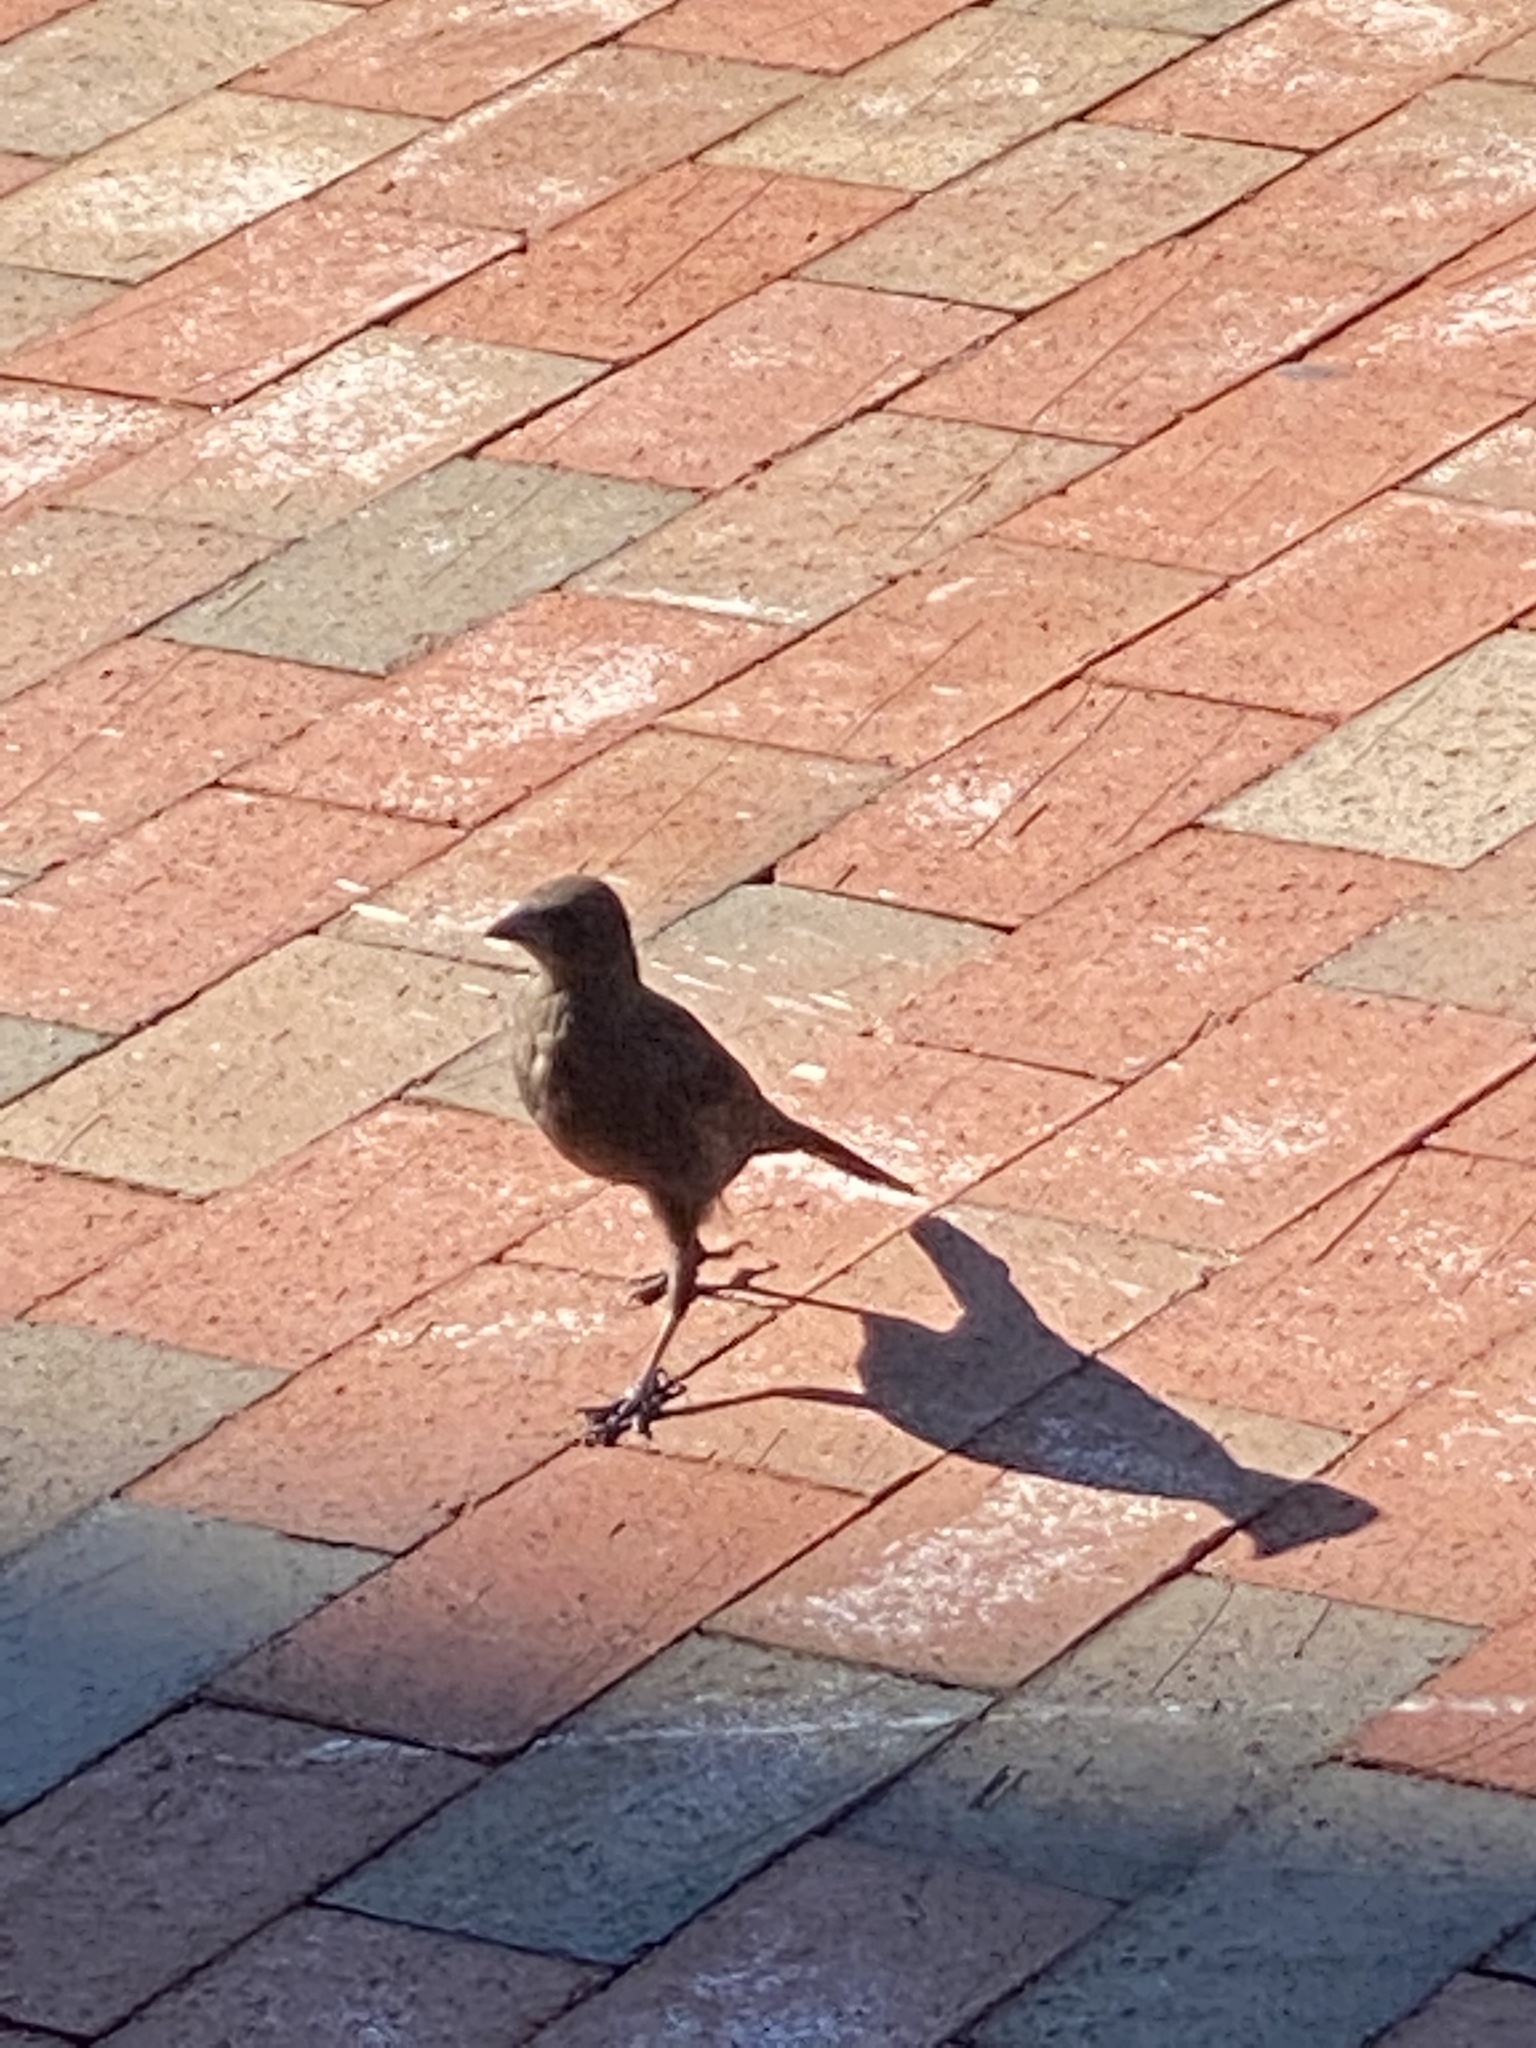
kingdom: Animalia
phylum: Chordata
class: Aves
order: Passeriformes
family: Icteridae
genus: Quiscalus
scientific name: Quiscalus quiscula
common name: Common grackle
